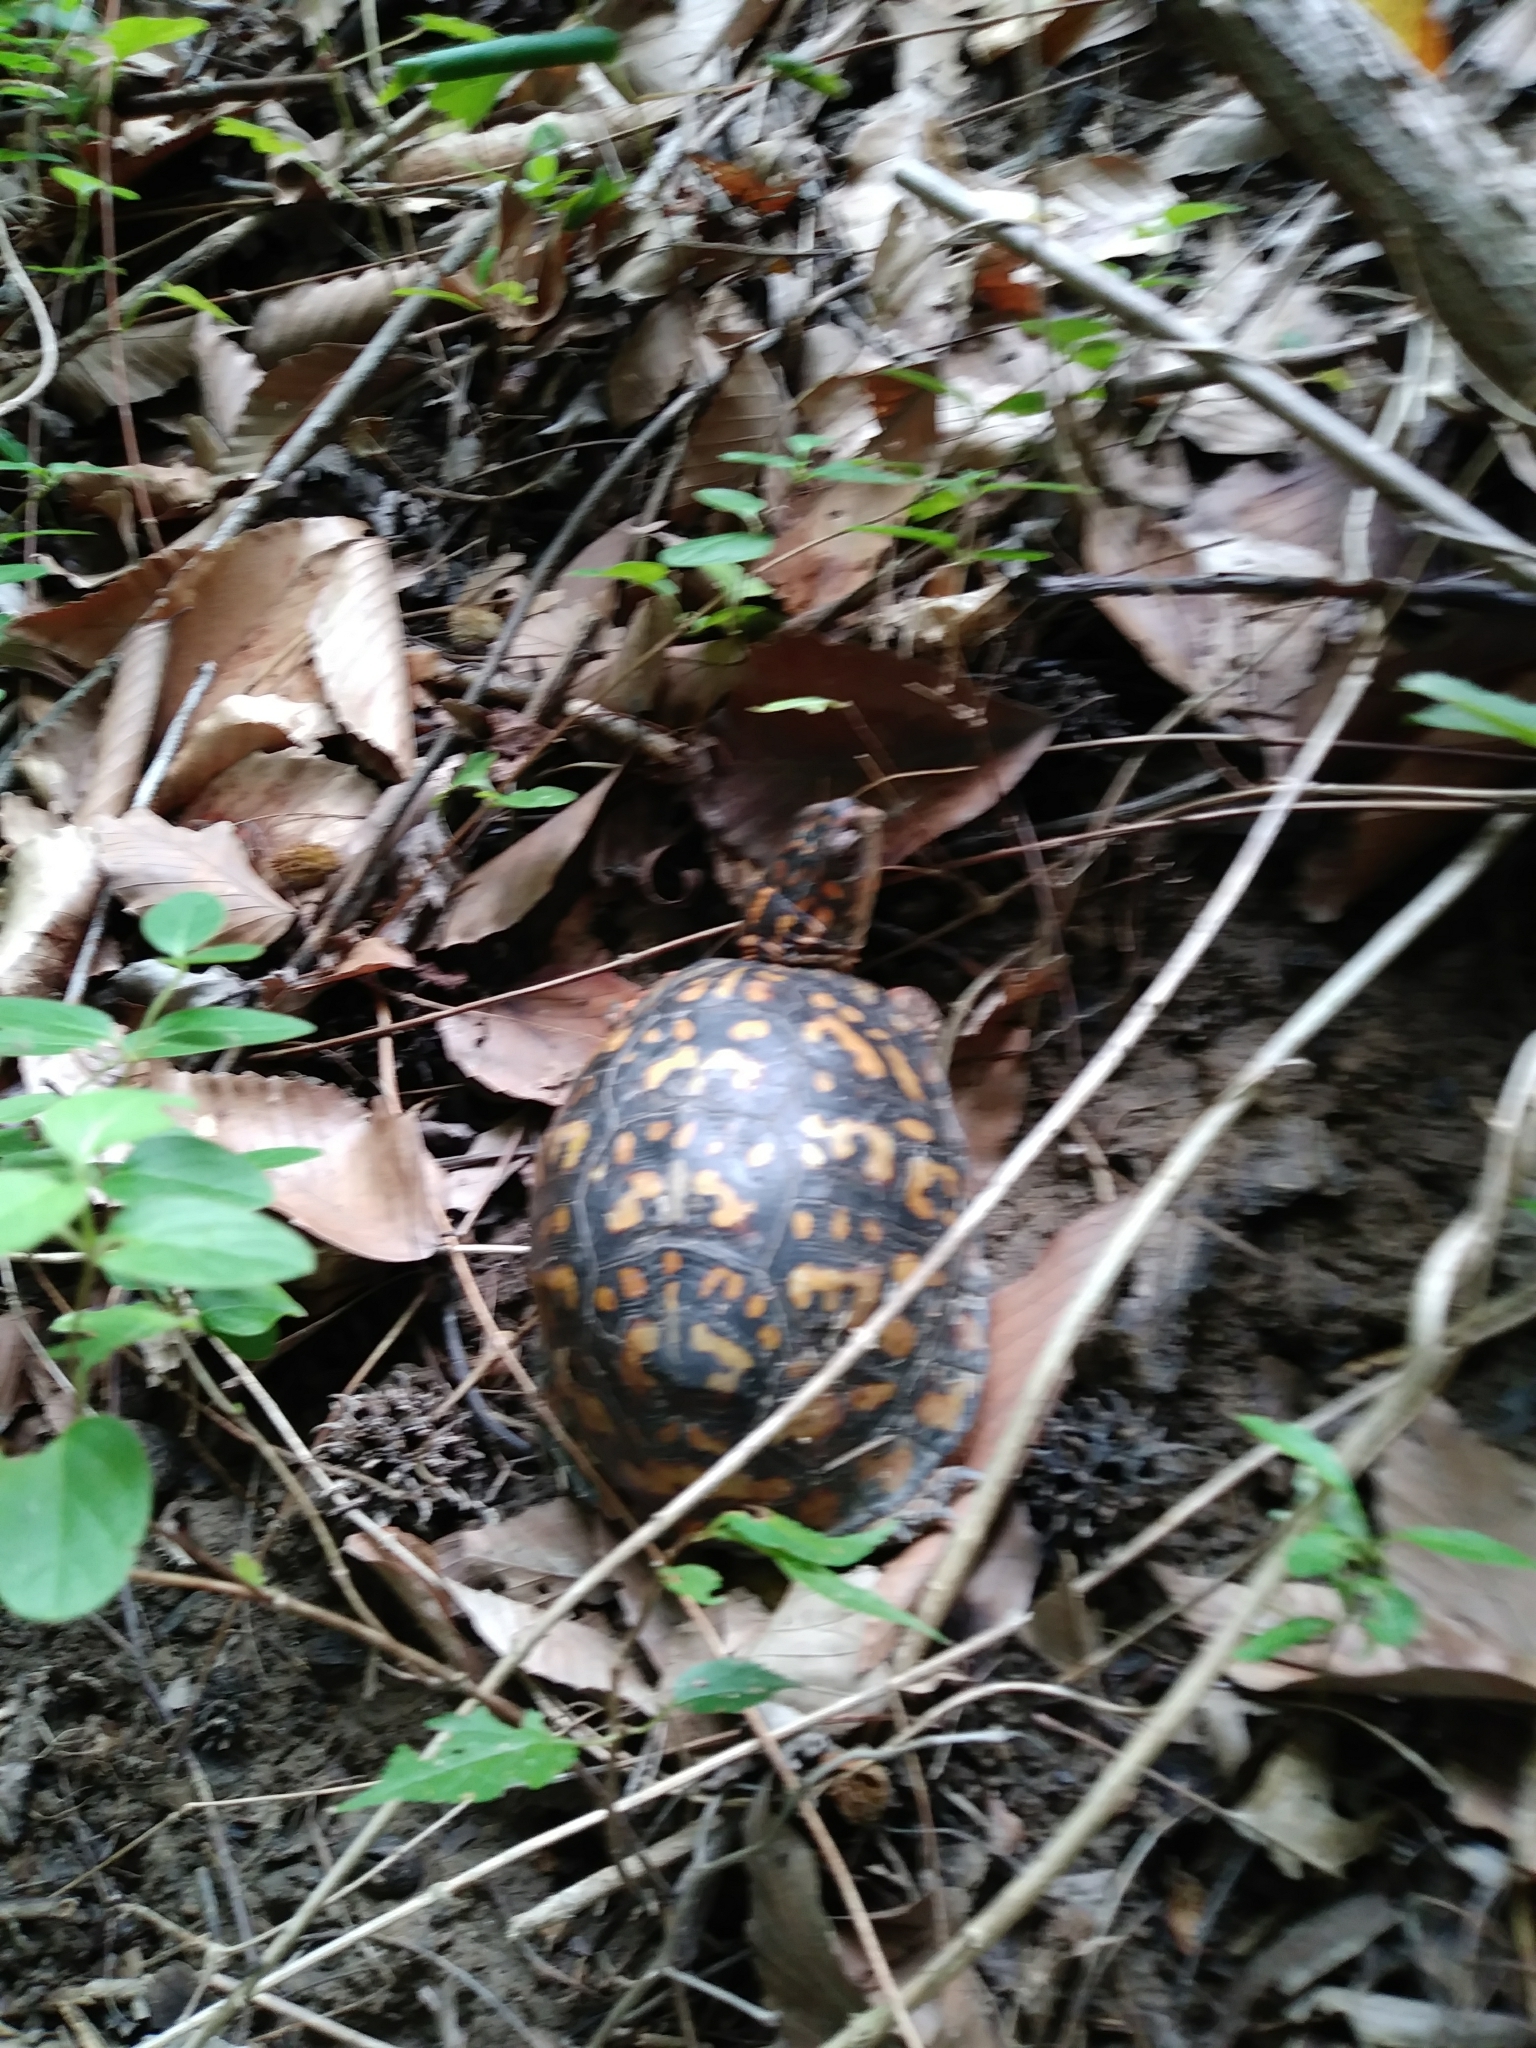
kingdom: Animalia
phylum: Chordata
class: Testudines
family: Emydidae
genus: Terrapene
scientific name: Terrapene carolina
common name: Common box turtle
